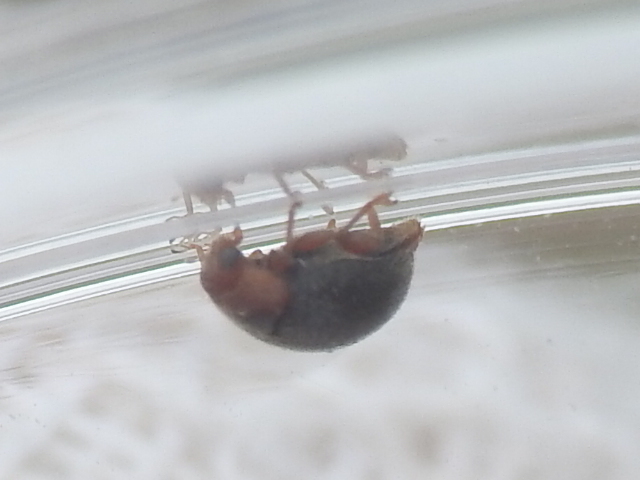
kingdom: Animalia
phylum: Arthropoda
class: Insecta
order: Coleoptera
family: Coccinellidae
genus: Scymnus
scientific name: Scymnus louisianae
